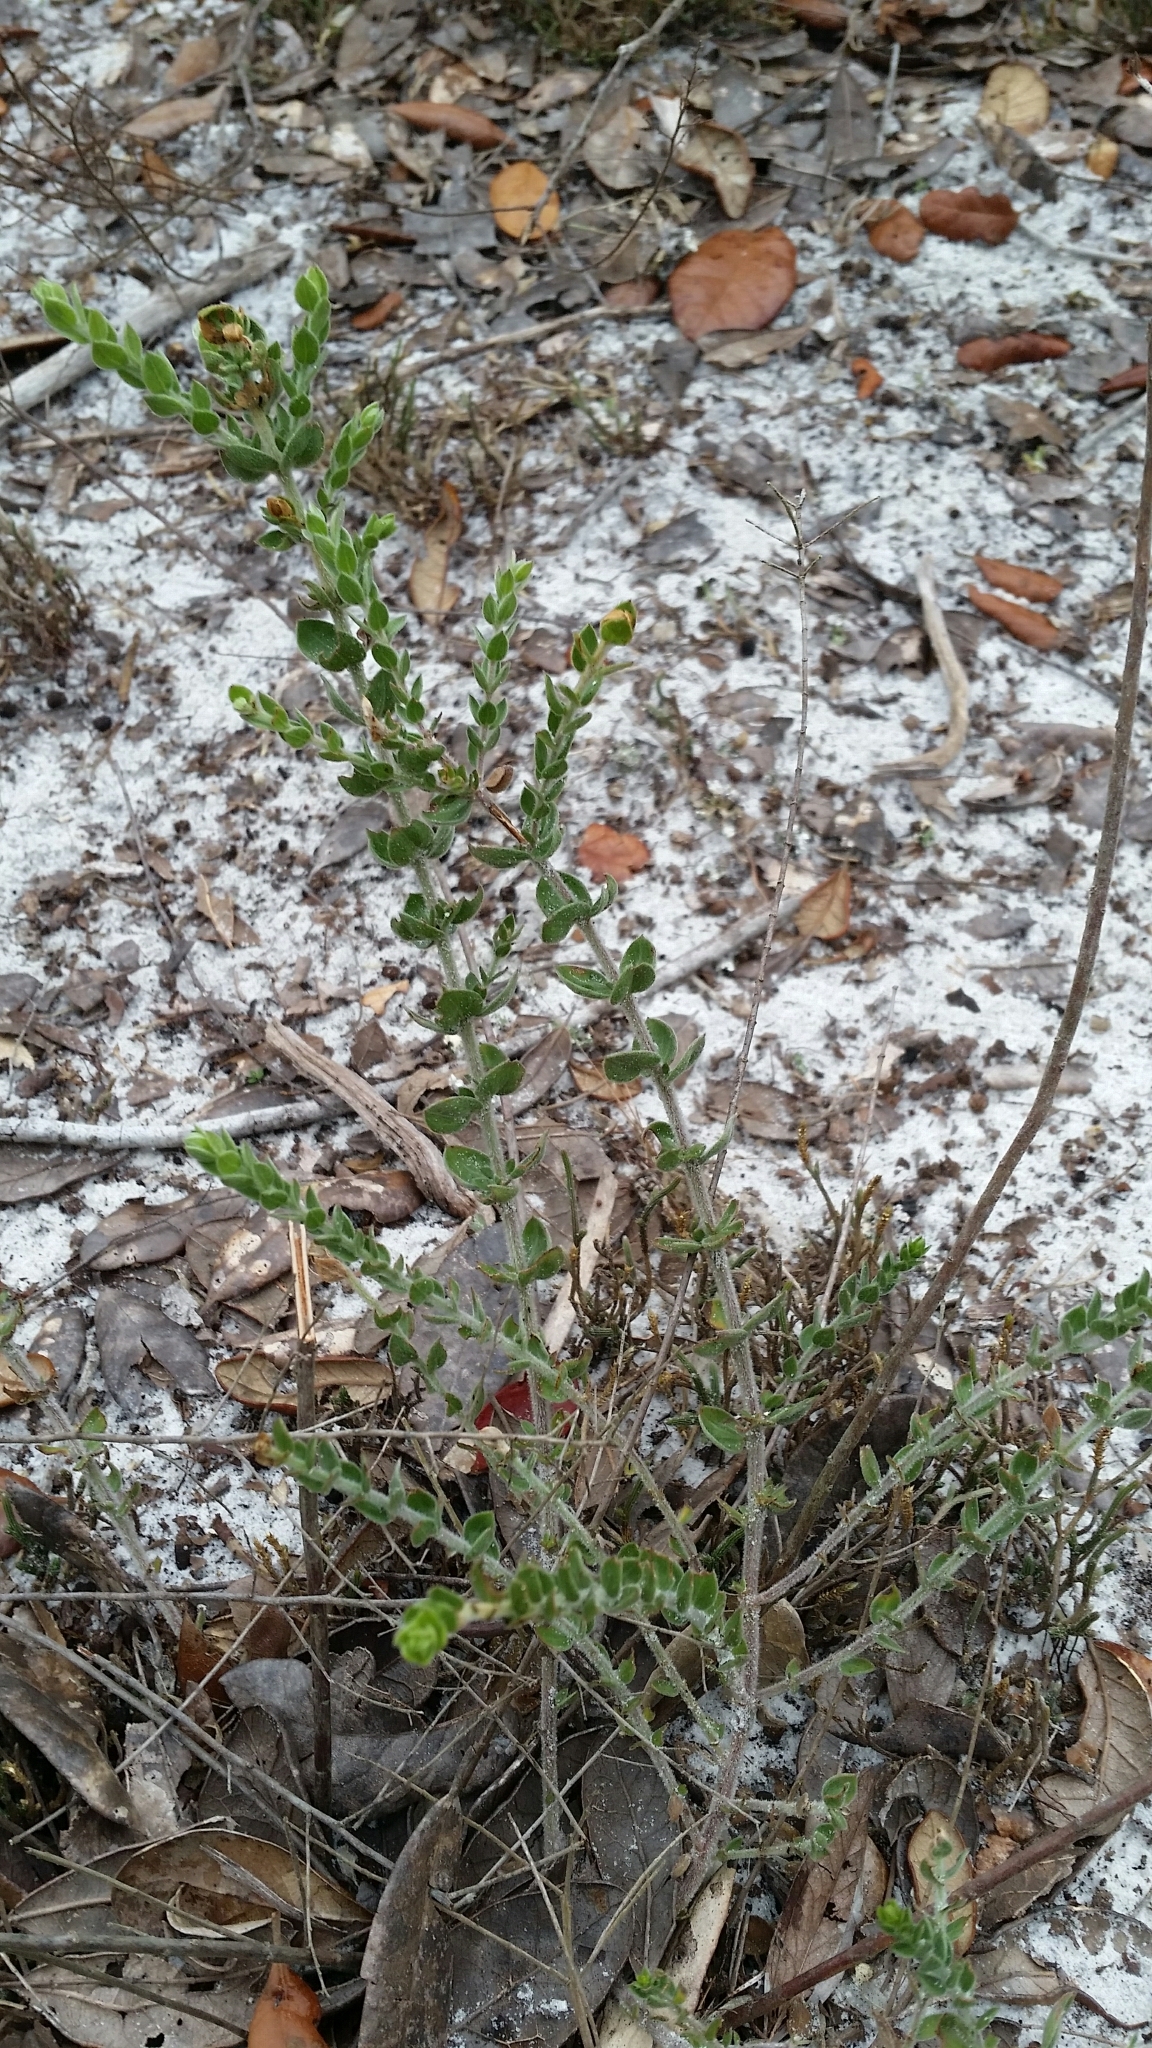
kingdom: Plantae
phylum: Tracheophyta
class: Magnoliopsida
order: Malvales
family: Cistaceae
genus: Lechea
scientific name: Lechea cernua
